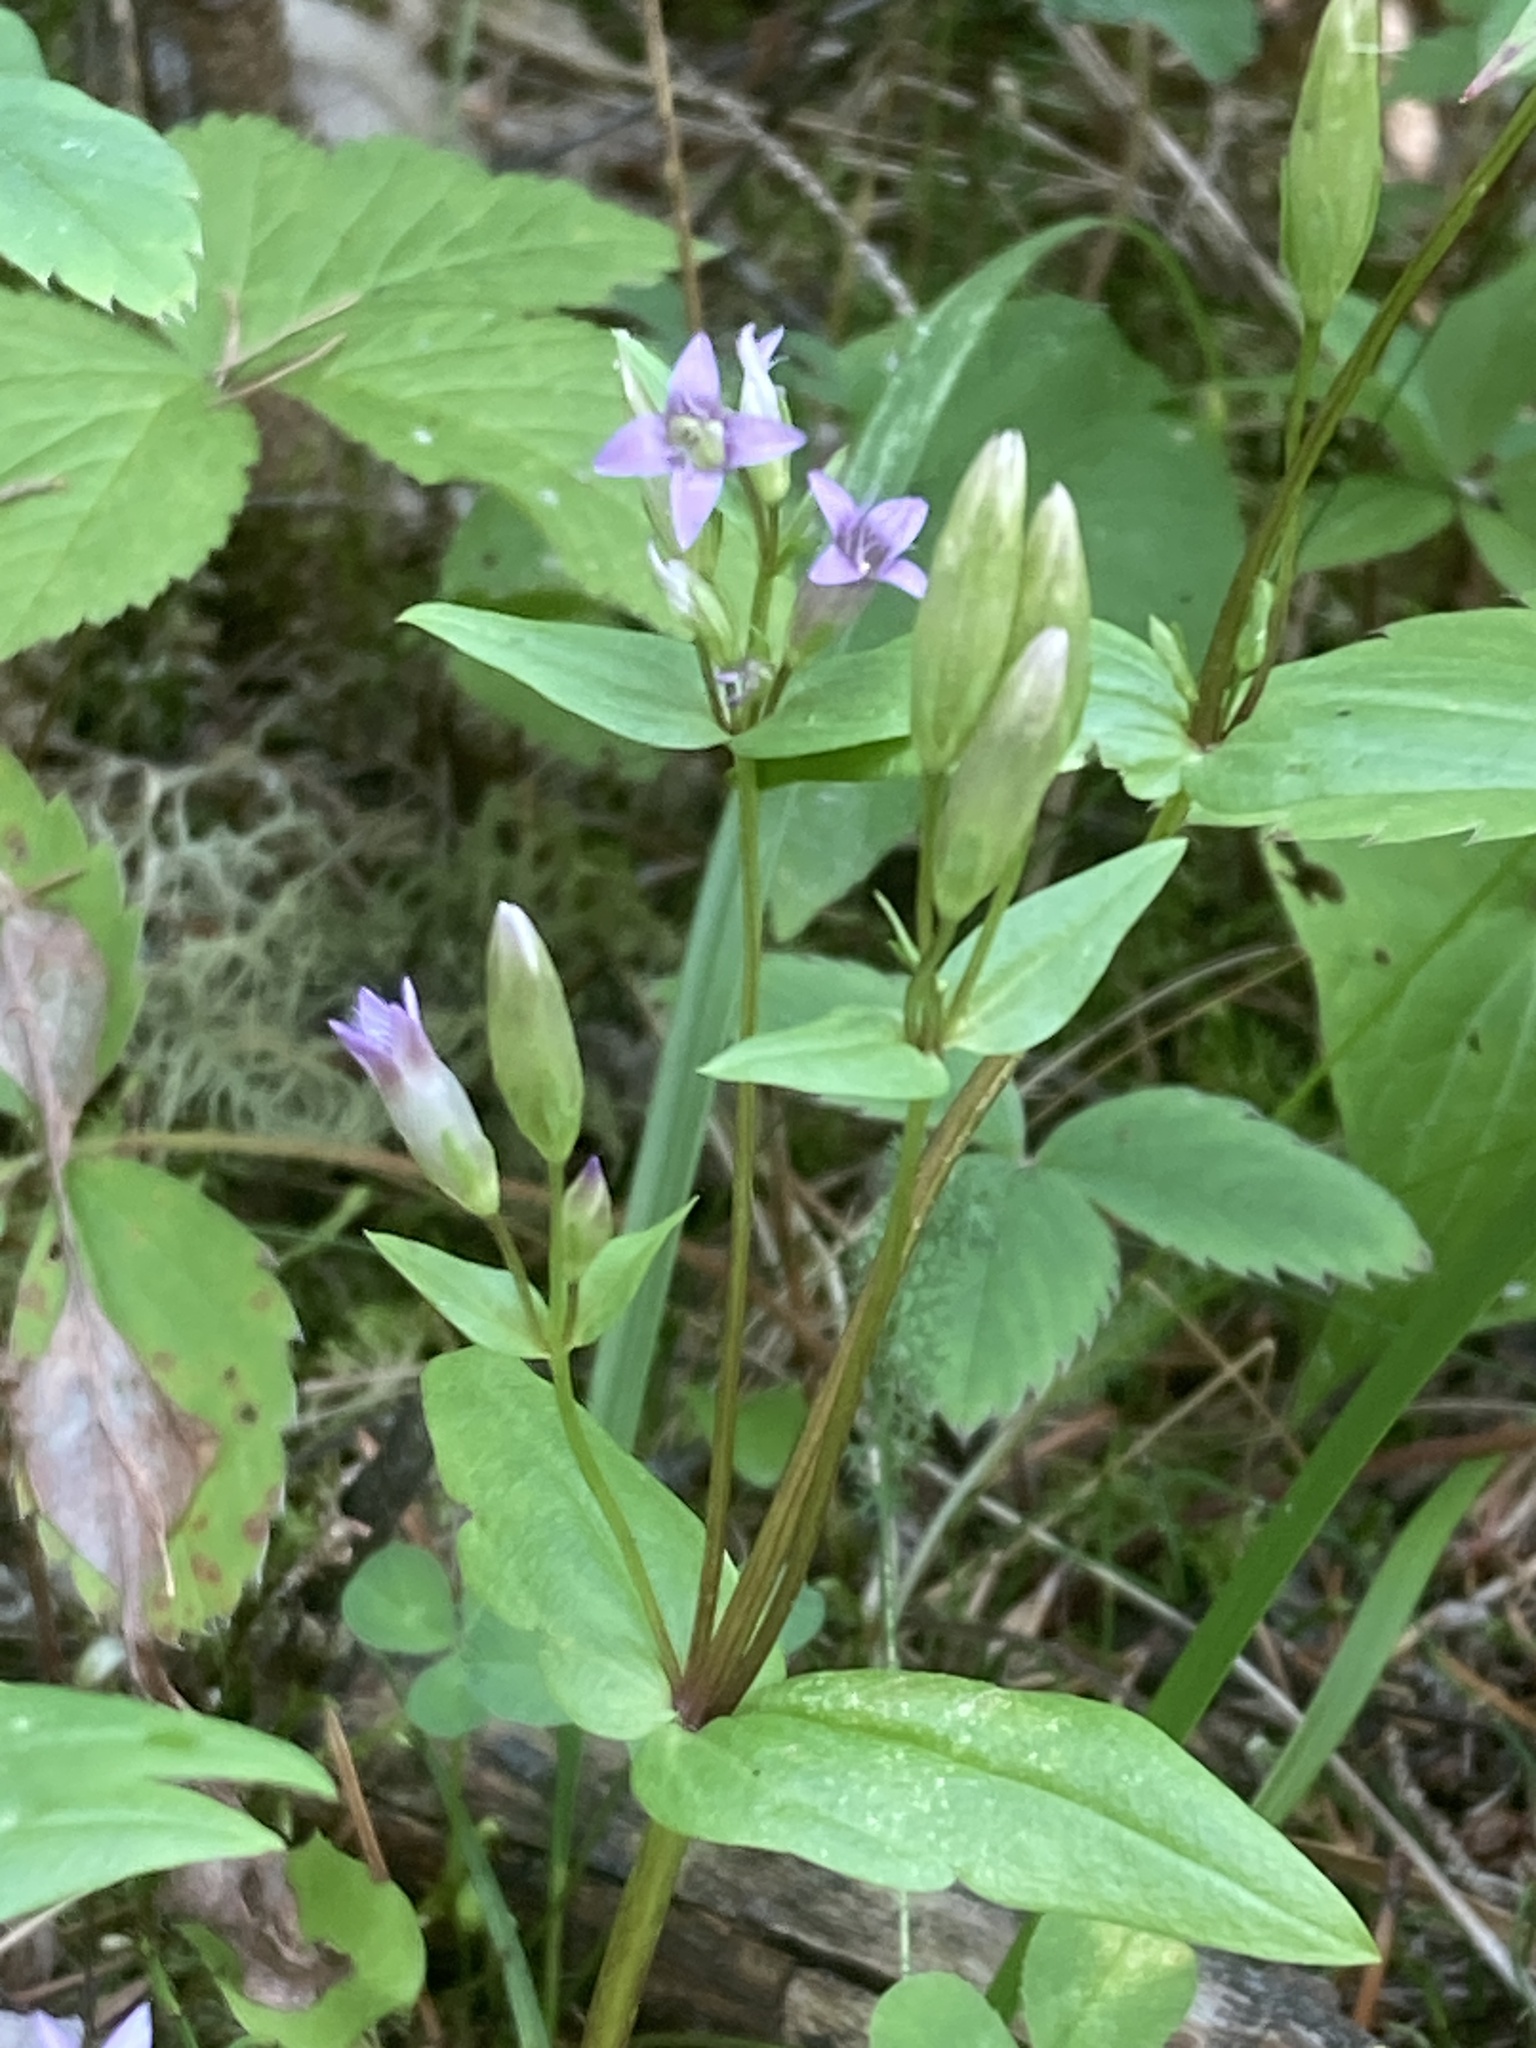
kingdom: Plantae
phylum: Tracheophyta
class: Magnoliopsida
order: Gentianales
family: Gentianaceae
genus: Gentianella
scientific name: Gentianella amarella
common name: Autumn gentian
